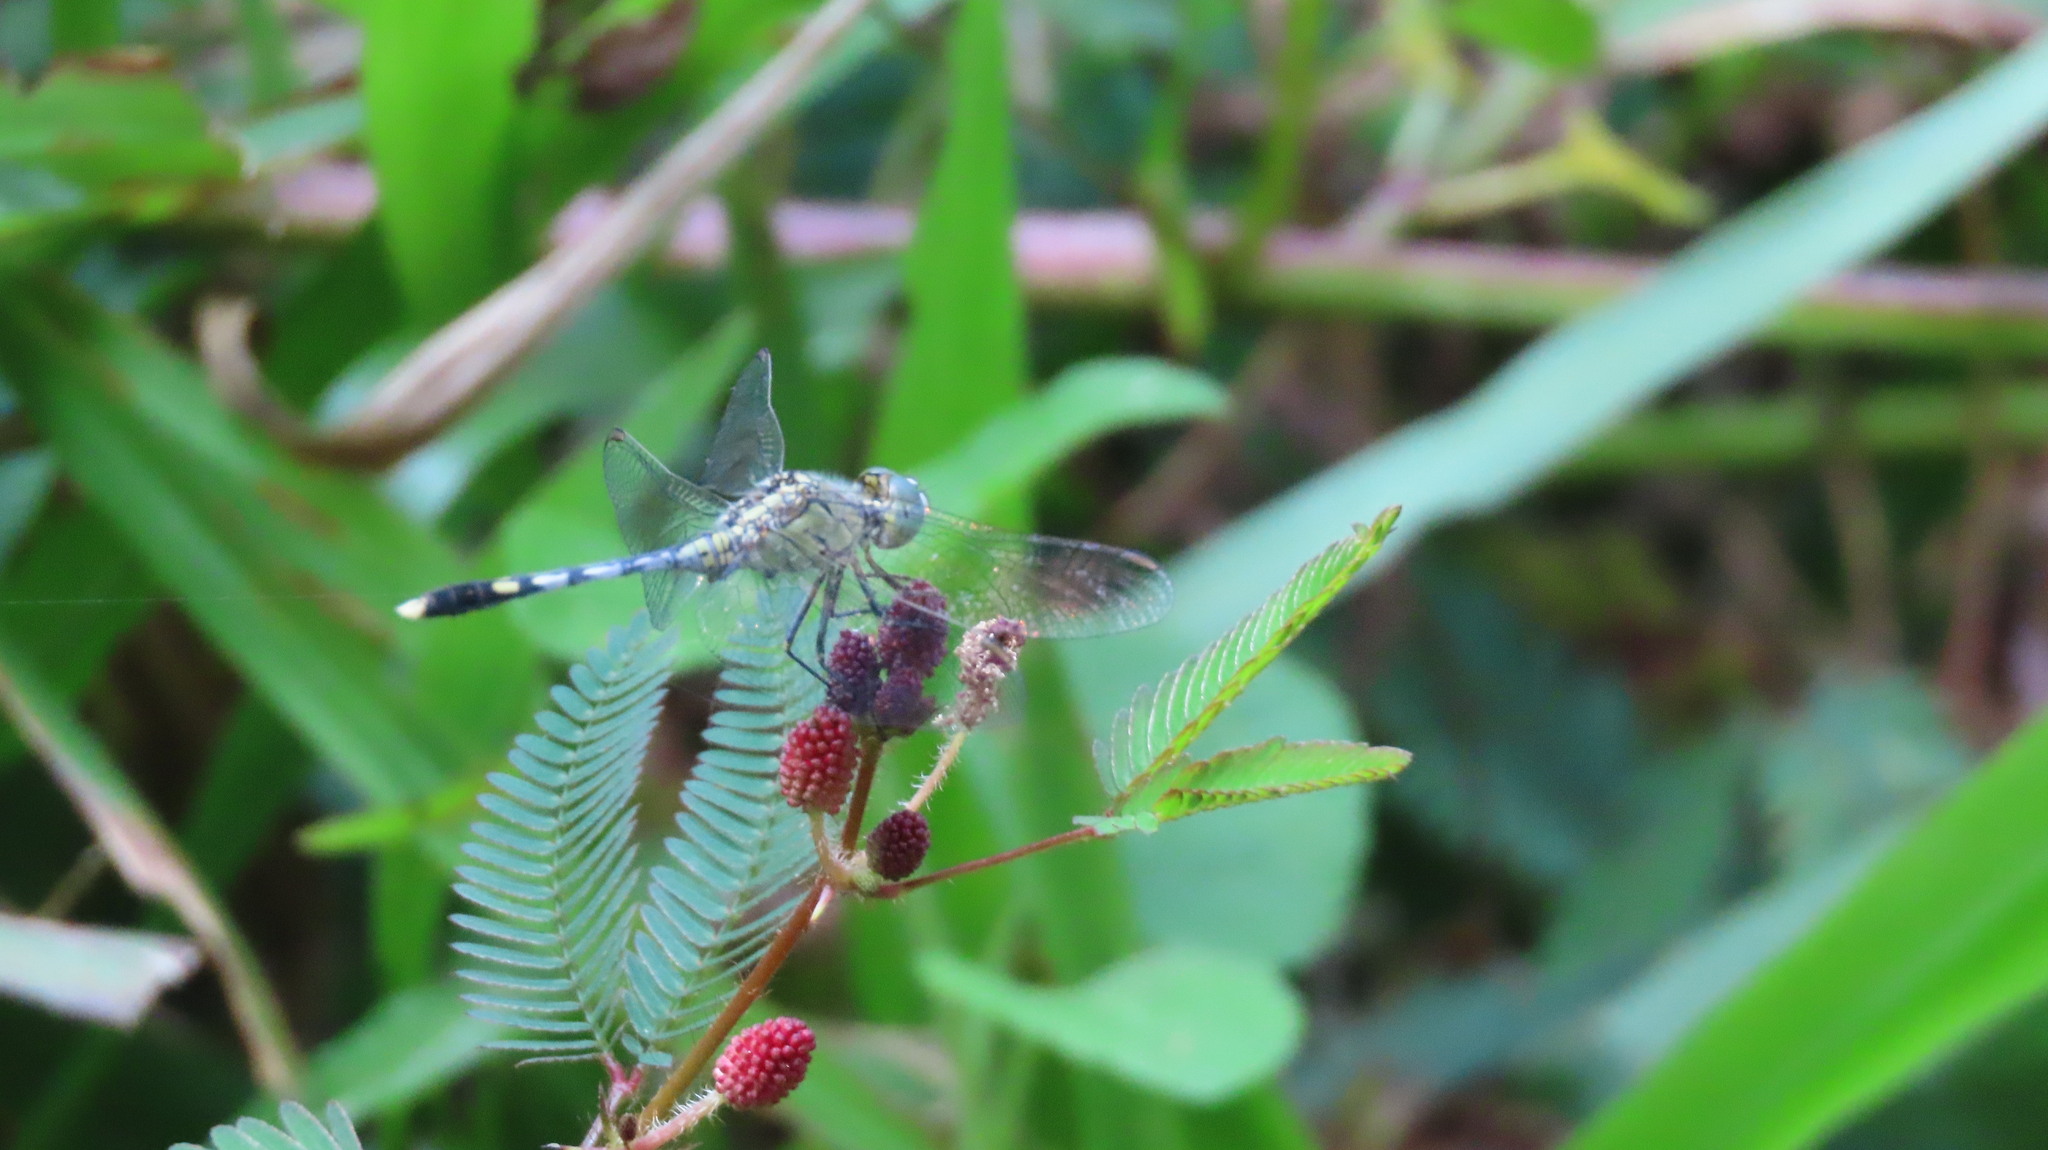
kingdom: Animalia
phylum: Arthropoda
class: Insecta
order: Odonata
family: Libellulidae
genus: Diplacodes
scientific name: Diplacodes trivialis
